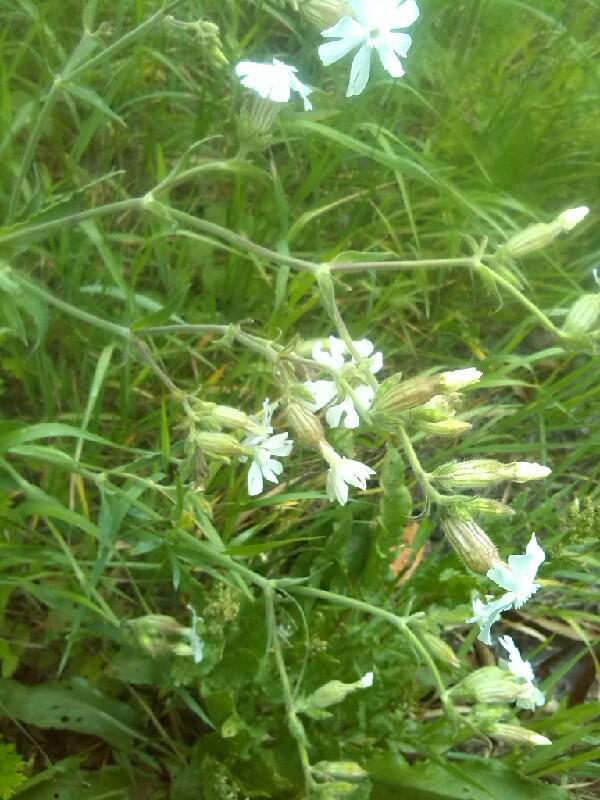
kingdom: Plantae
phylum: Tracheophyta
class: Magnoliopsida
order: Caryophyllales
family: Caryophyllaceae
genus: Silene
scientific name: Silene latifolia
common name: White campion
